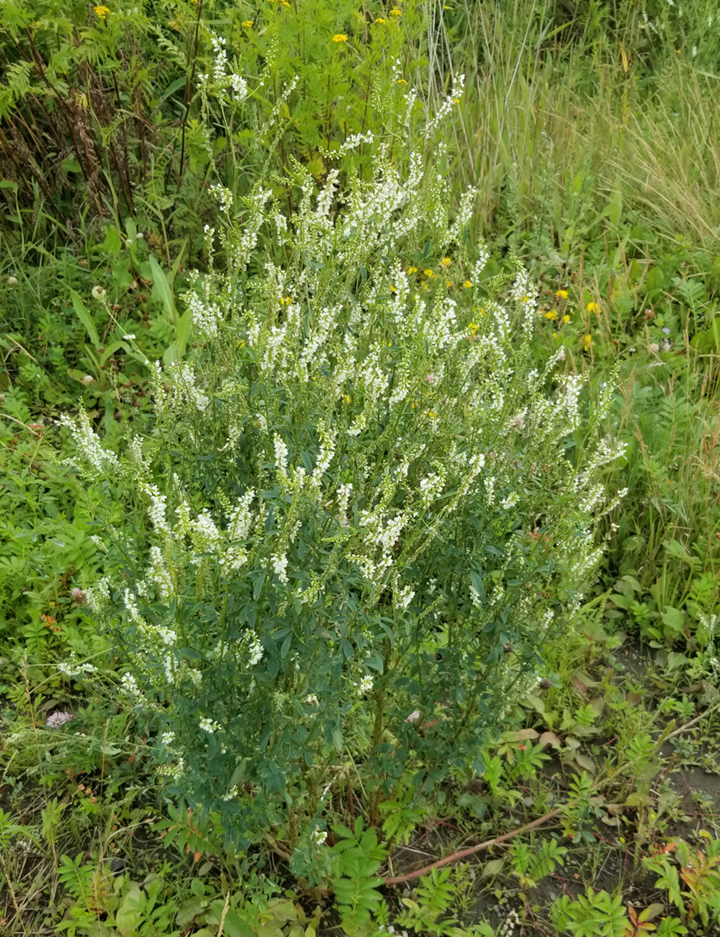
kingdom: Plantae
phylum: Tracheophyta
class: Magnoliopsida
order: Fabales
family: Fabaceae
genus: Melilotus
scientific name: Melilotus albus
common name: White melilot
